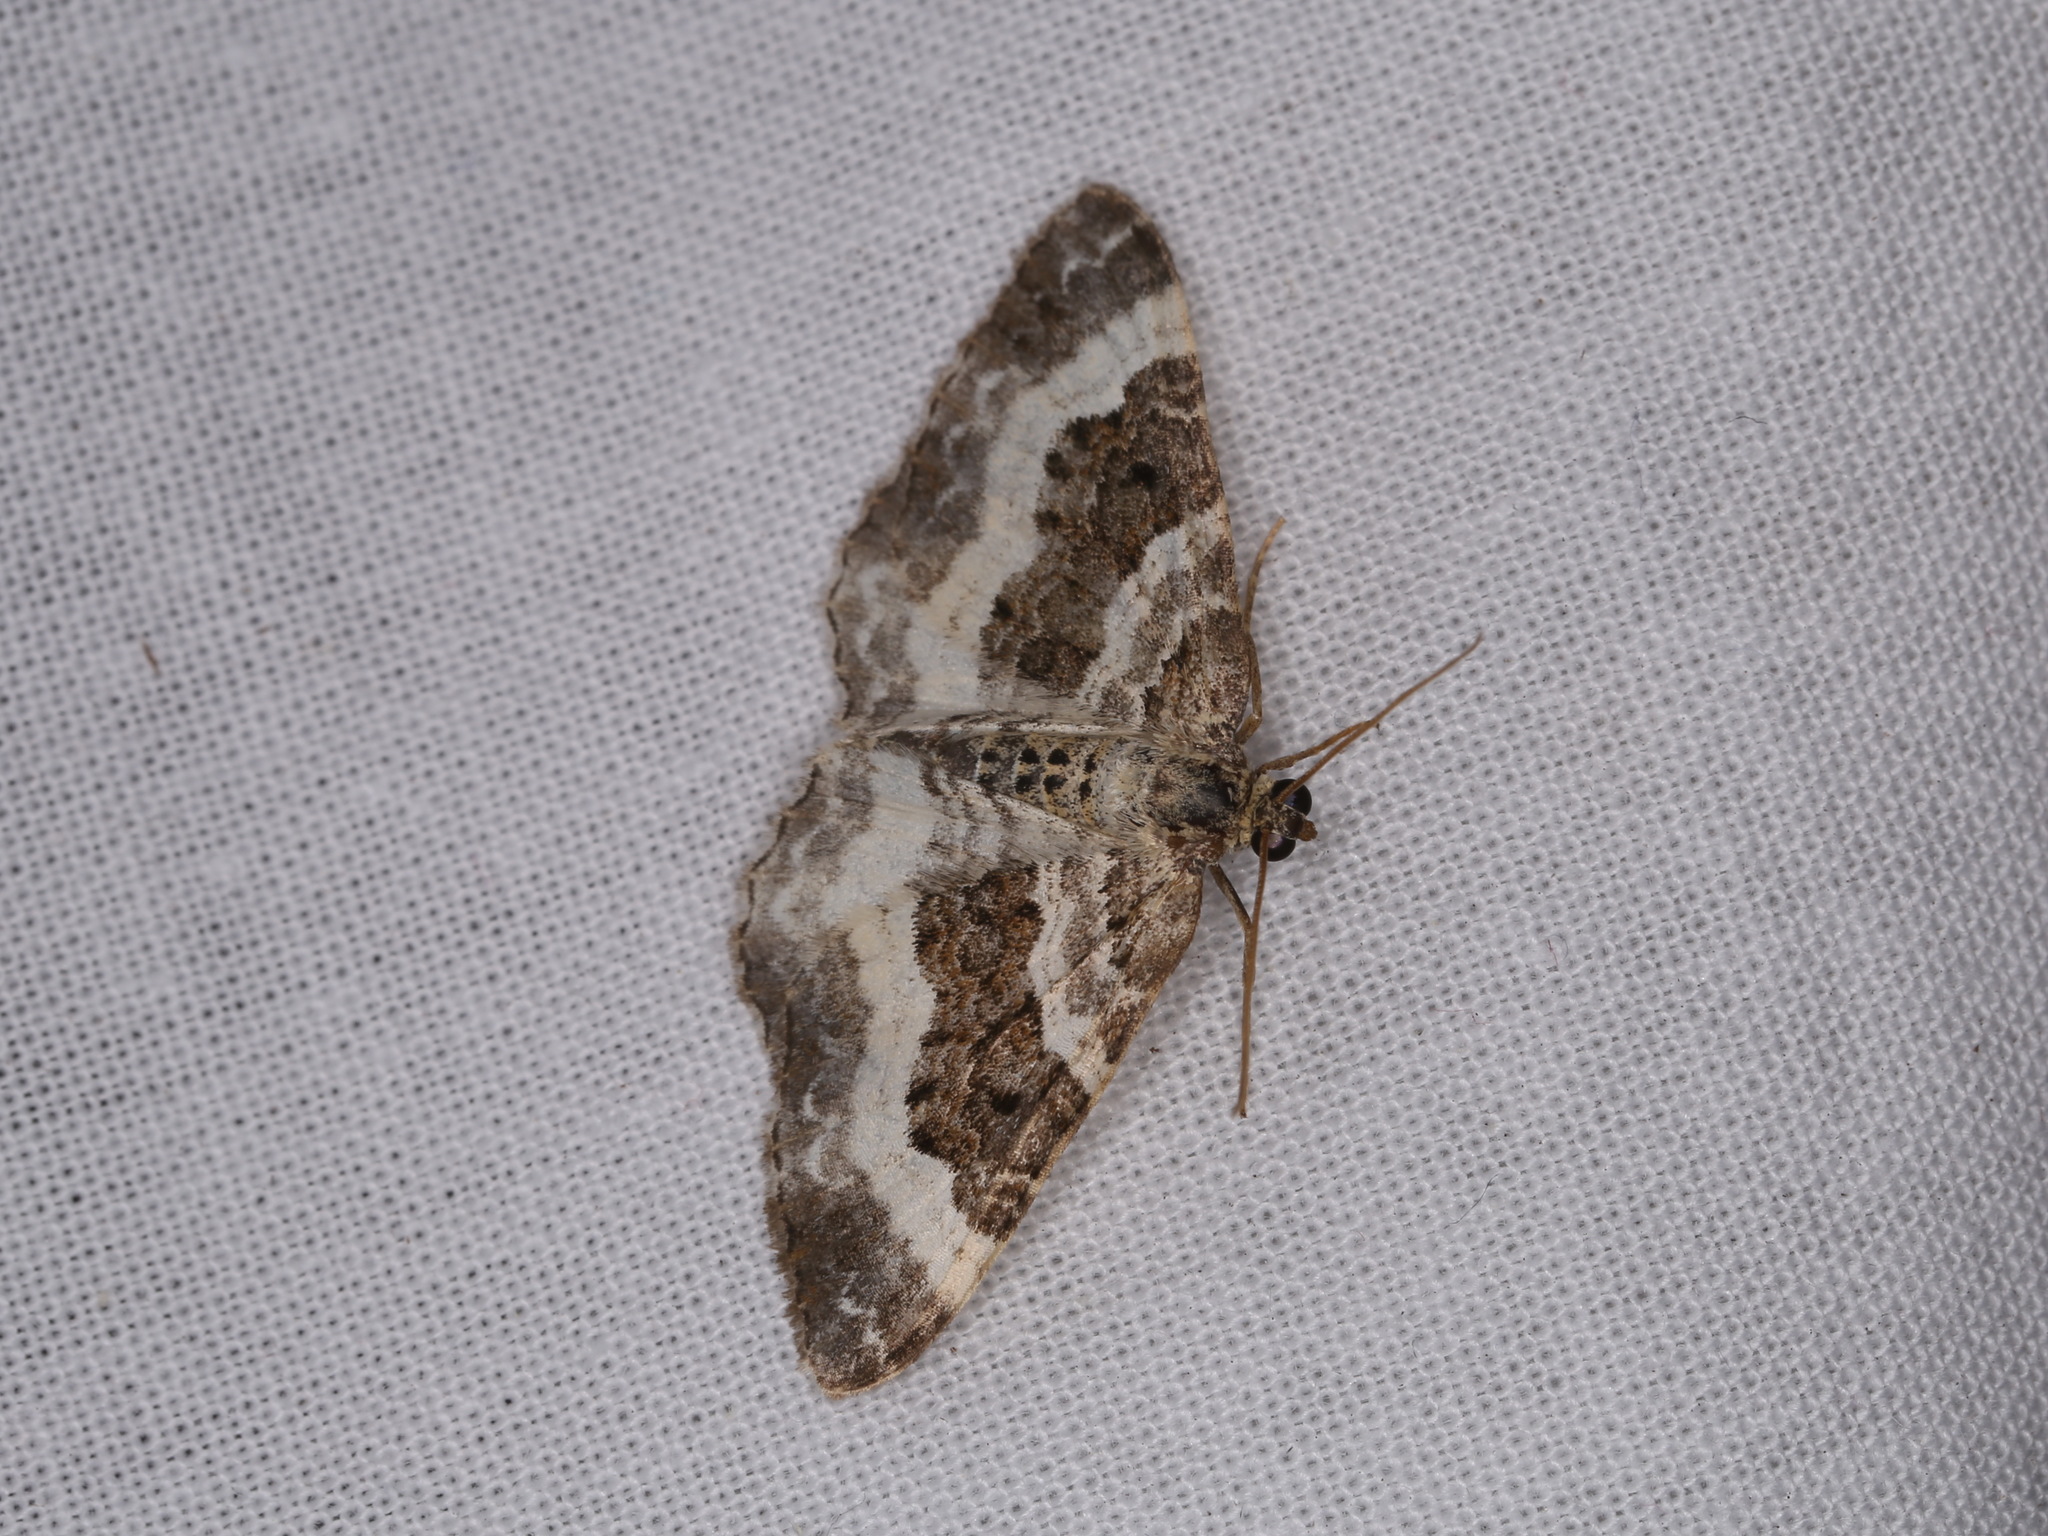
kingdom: Animalia
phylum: Arthropoda
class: Insecta
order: Lepidoptera
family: Geometridae
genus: Epirrhoe
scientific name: Epirrhoe alternata
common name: Common carpet
